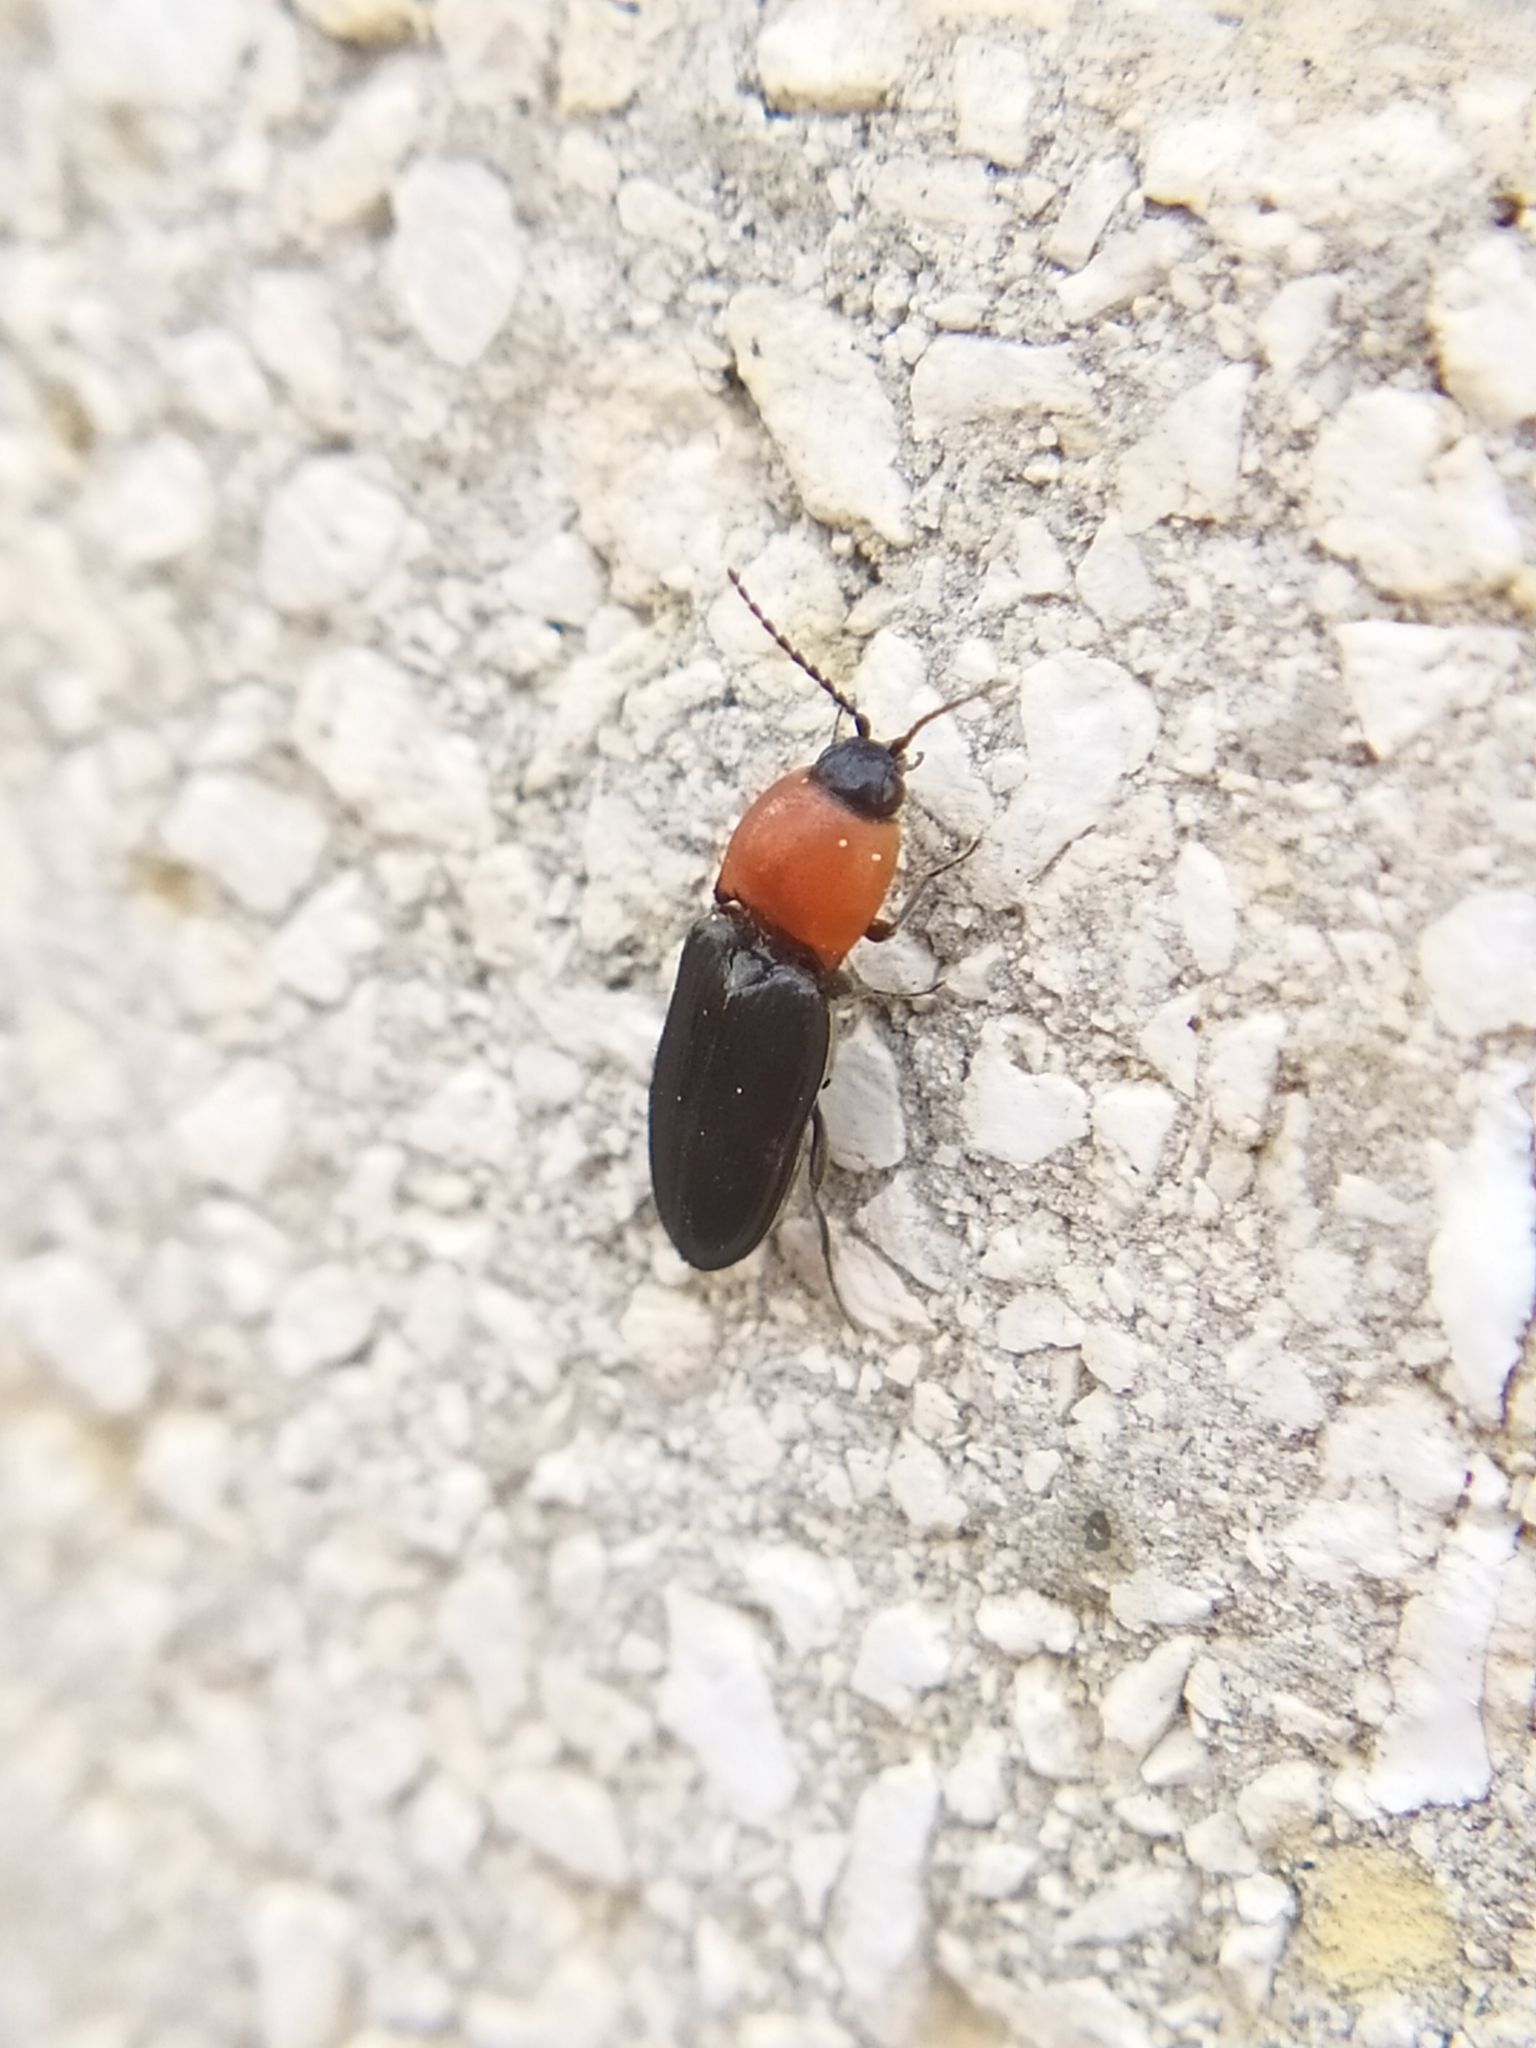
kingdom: Animalia
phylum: Arthropoda
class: Insecta
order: Coleoptera
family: Elateridae
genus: Cardiophorus
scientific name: Cardiophorus gramineus
